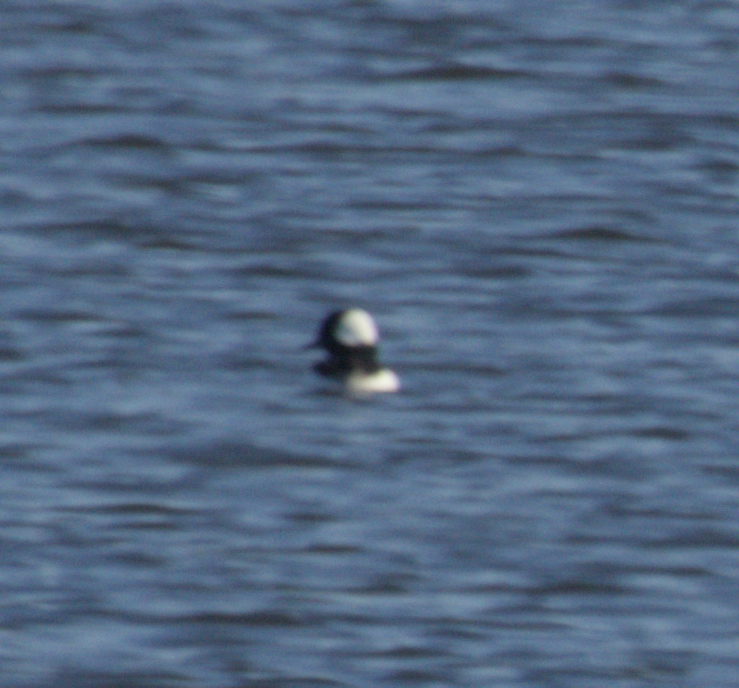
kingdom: Animalia
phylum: Chordata
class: Aves
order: Anseriformes
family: Anatidae
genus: Bucephala
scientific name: Bucephala albeola
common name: Bufflehead
